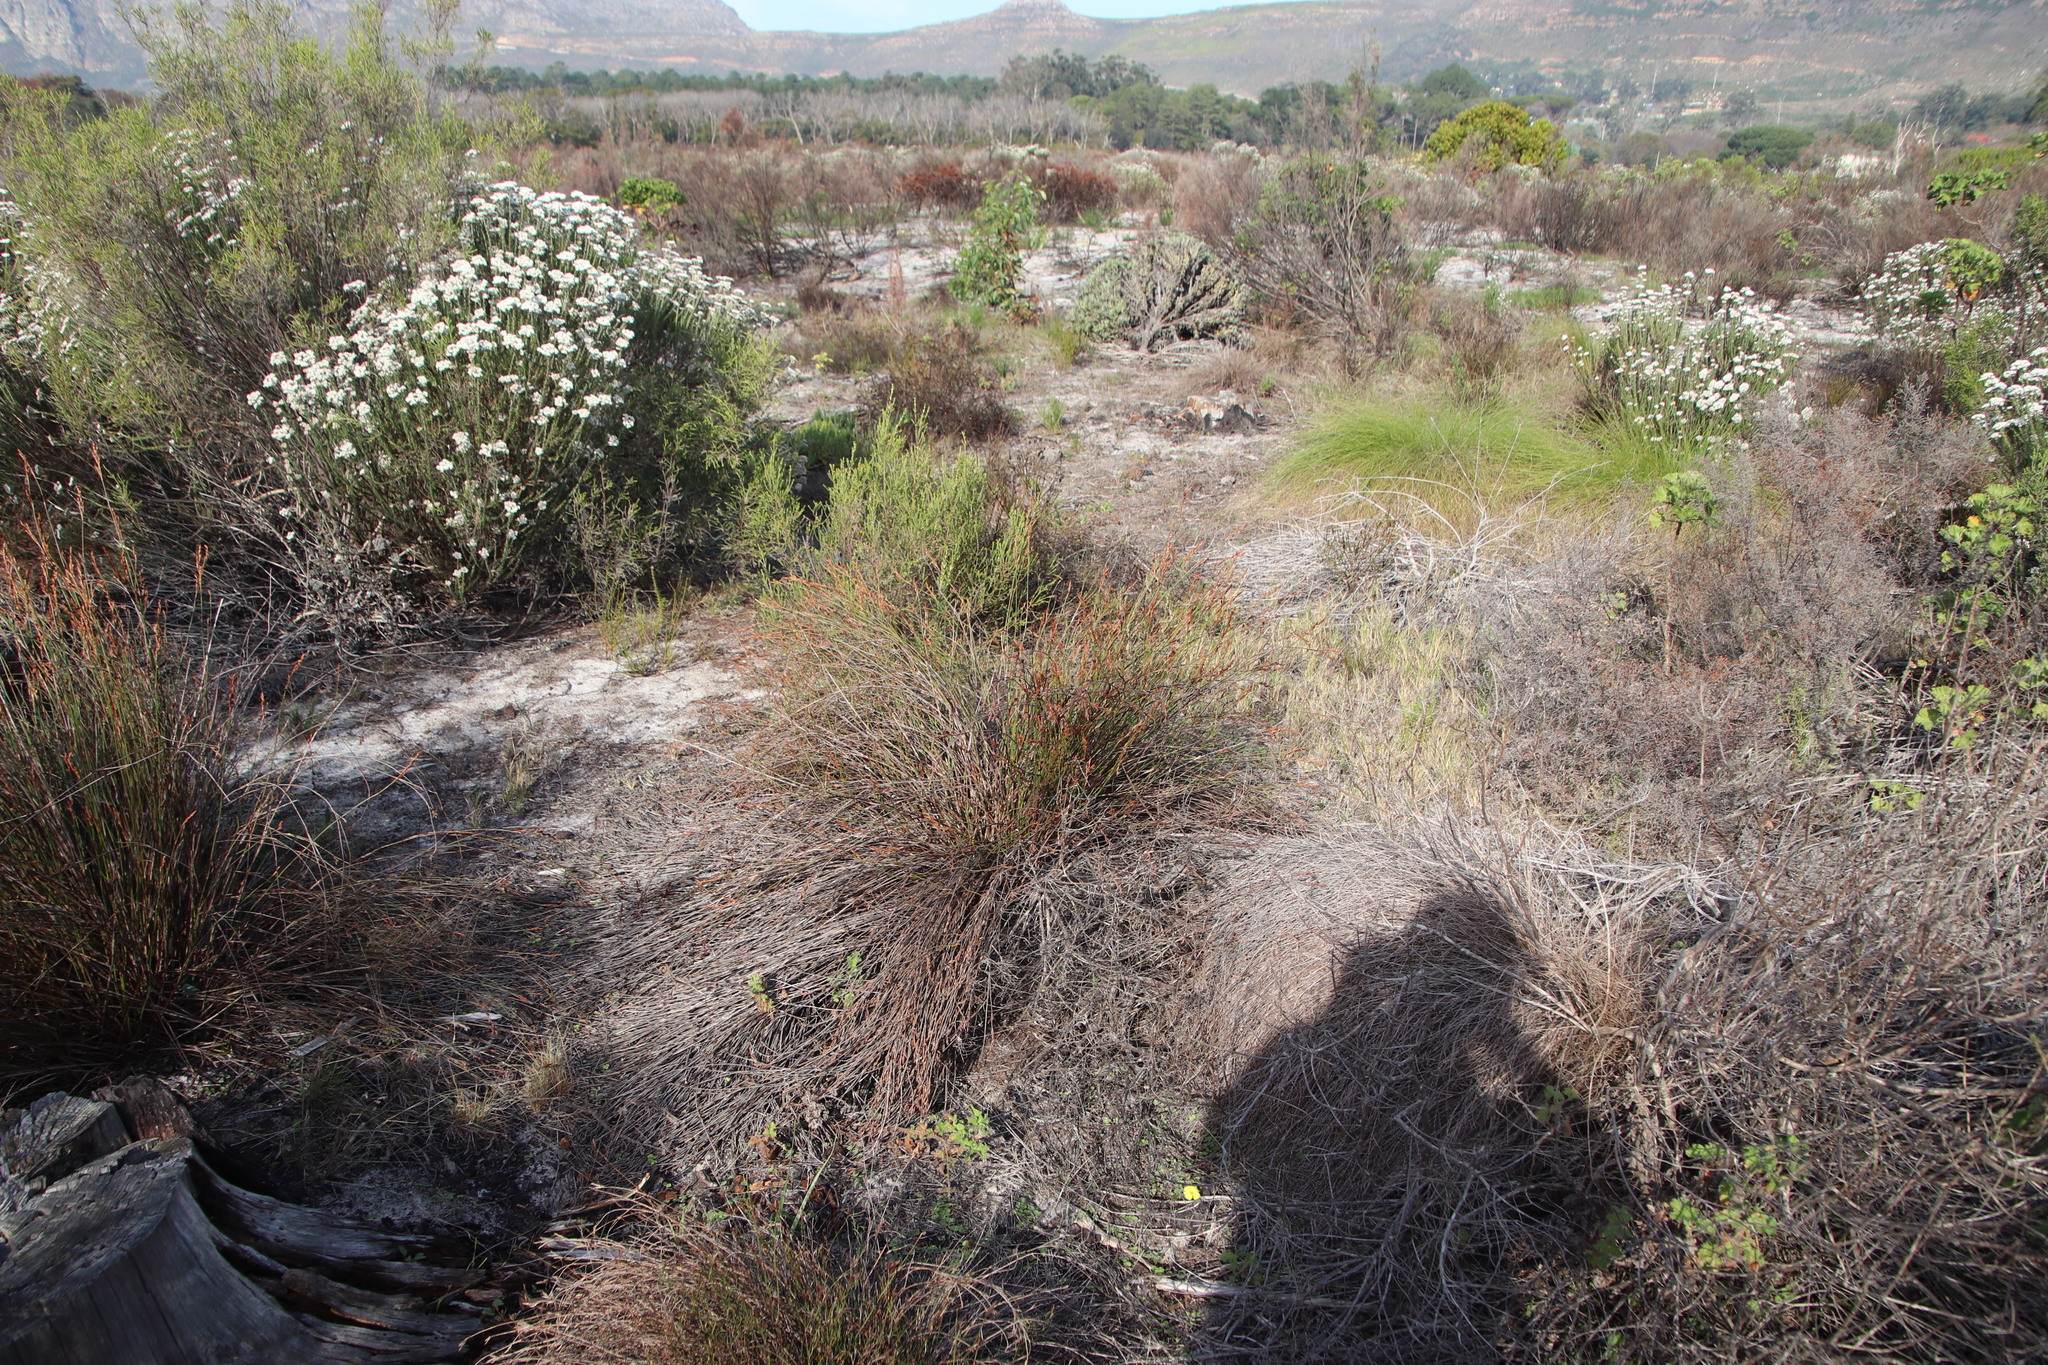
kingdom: Plantae
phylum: Tracheophyta
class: Liliopsida
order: Poales
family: Restionaceae
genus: Restio
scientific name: Restio bifurcus
